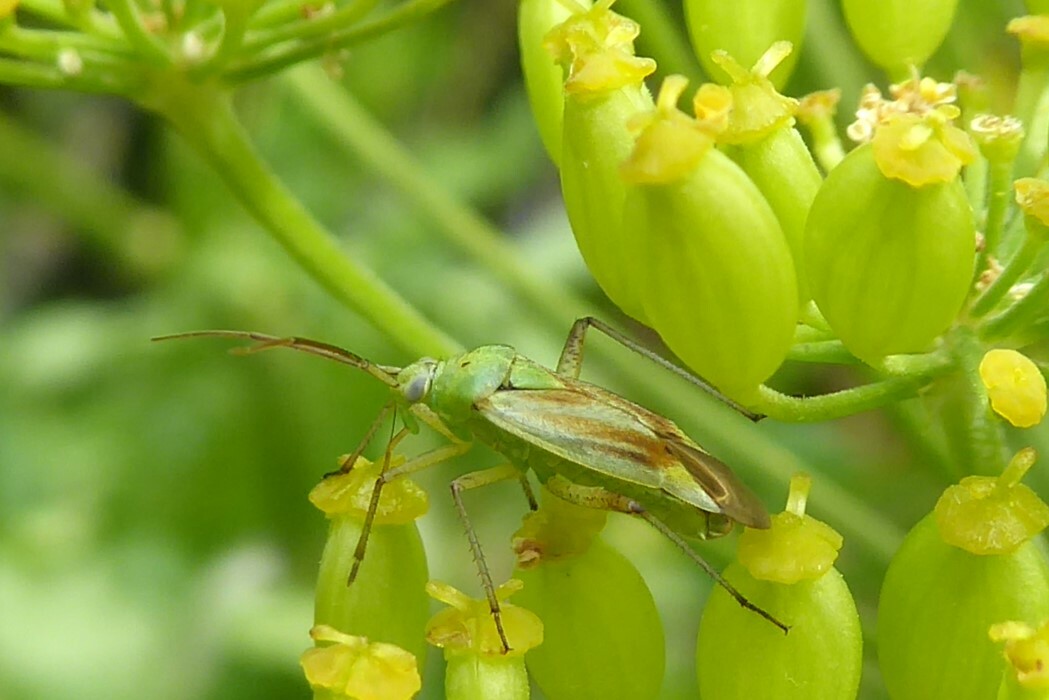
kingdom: Animalia
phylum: Arthropoda
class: Insecta
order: Hemiptera
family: Miridae
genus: Closterotomus
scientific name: Closterotomus norvegicus
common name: Plant bug
